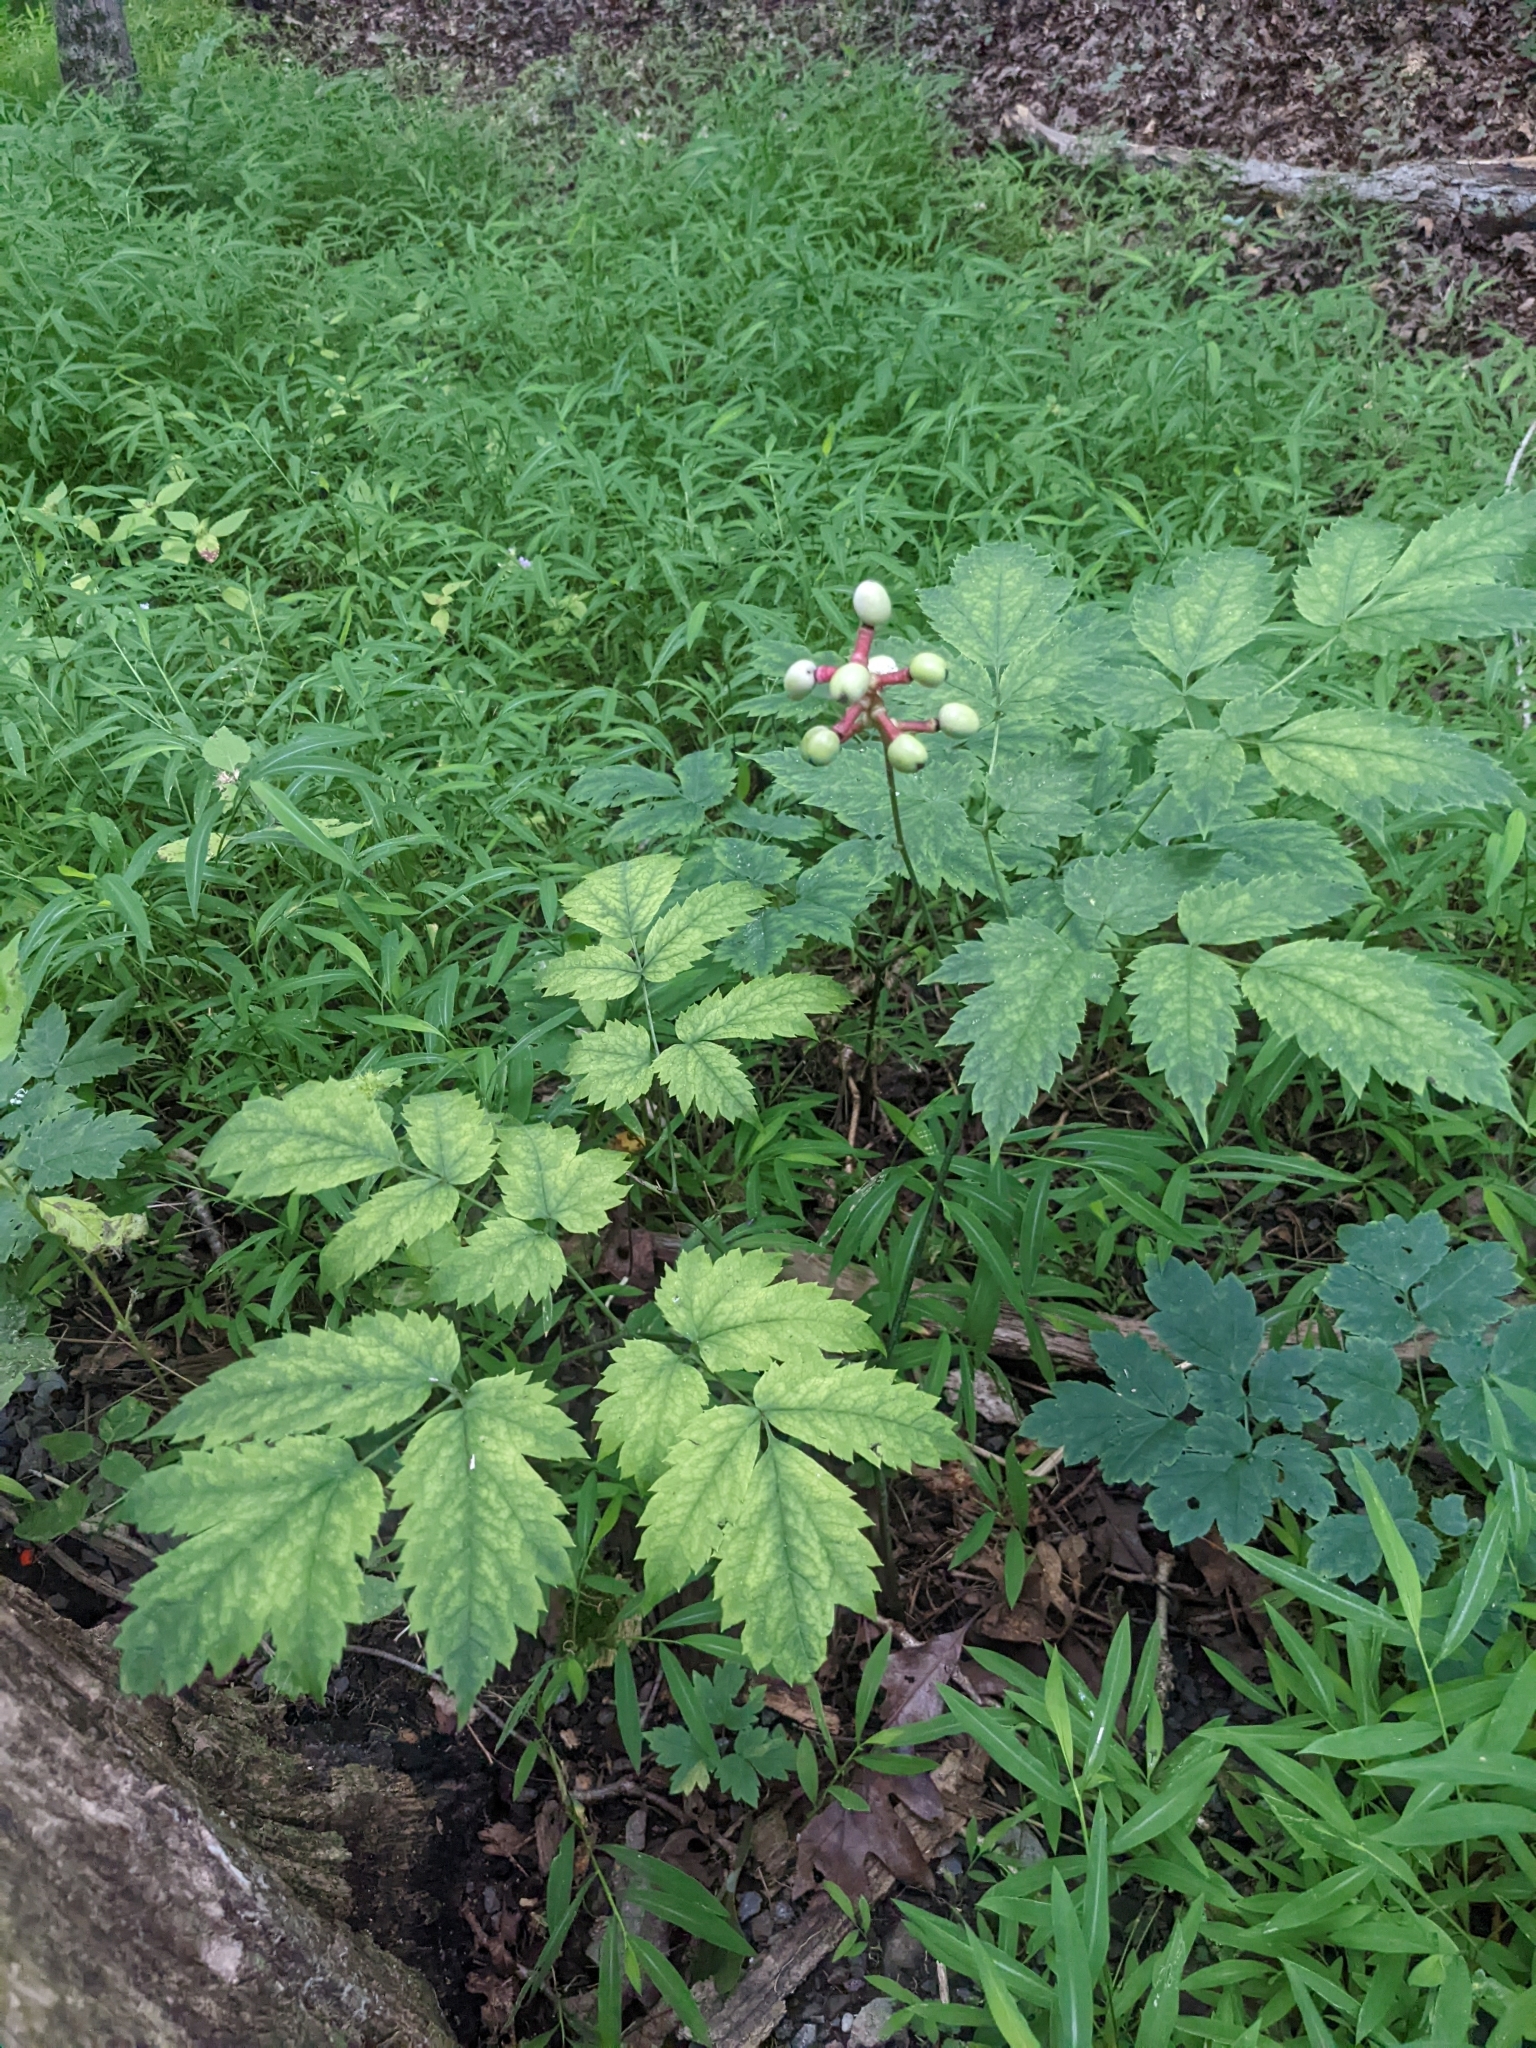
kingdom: Plantae
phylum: Tracheophyta
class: Magnoliopsida
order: Ranunculales
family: Ranunculaceae
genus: Actaea
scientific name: Actaea pachypoda
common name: Doll's-eyes
